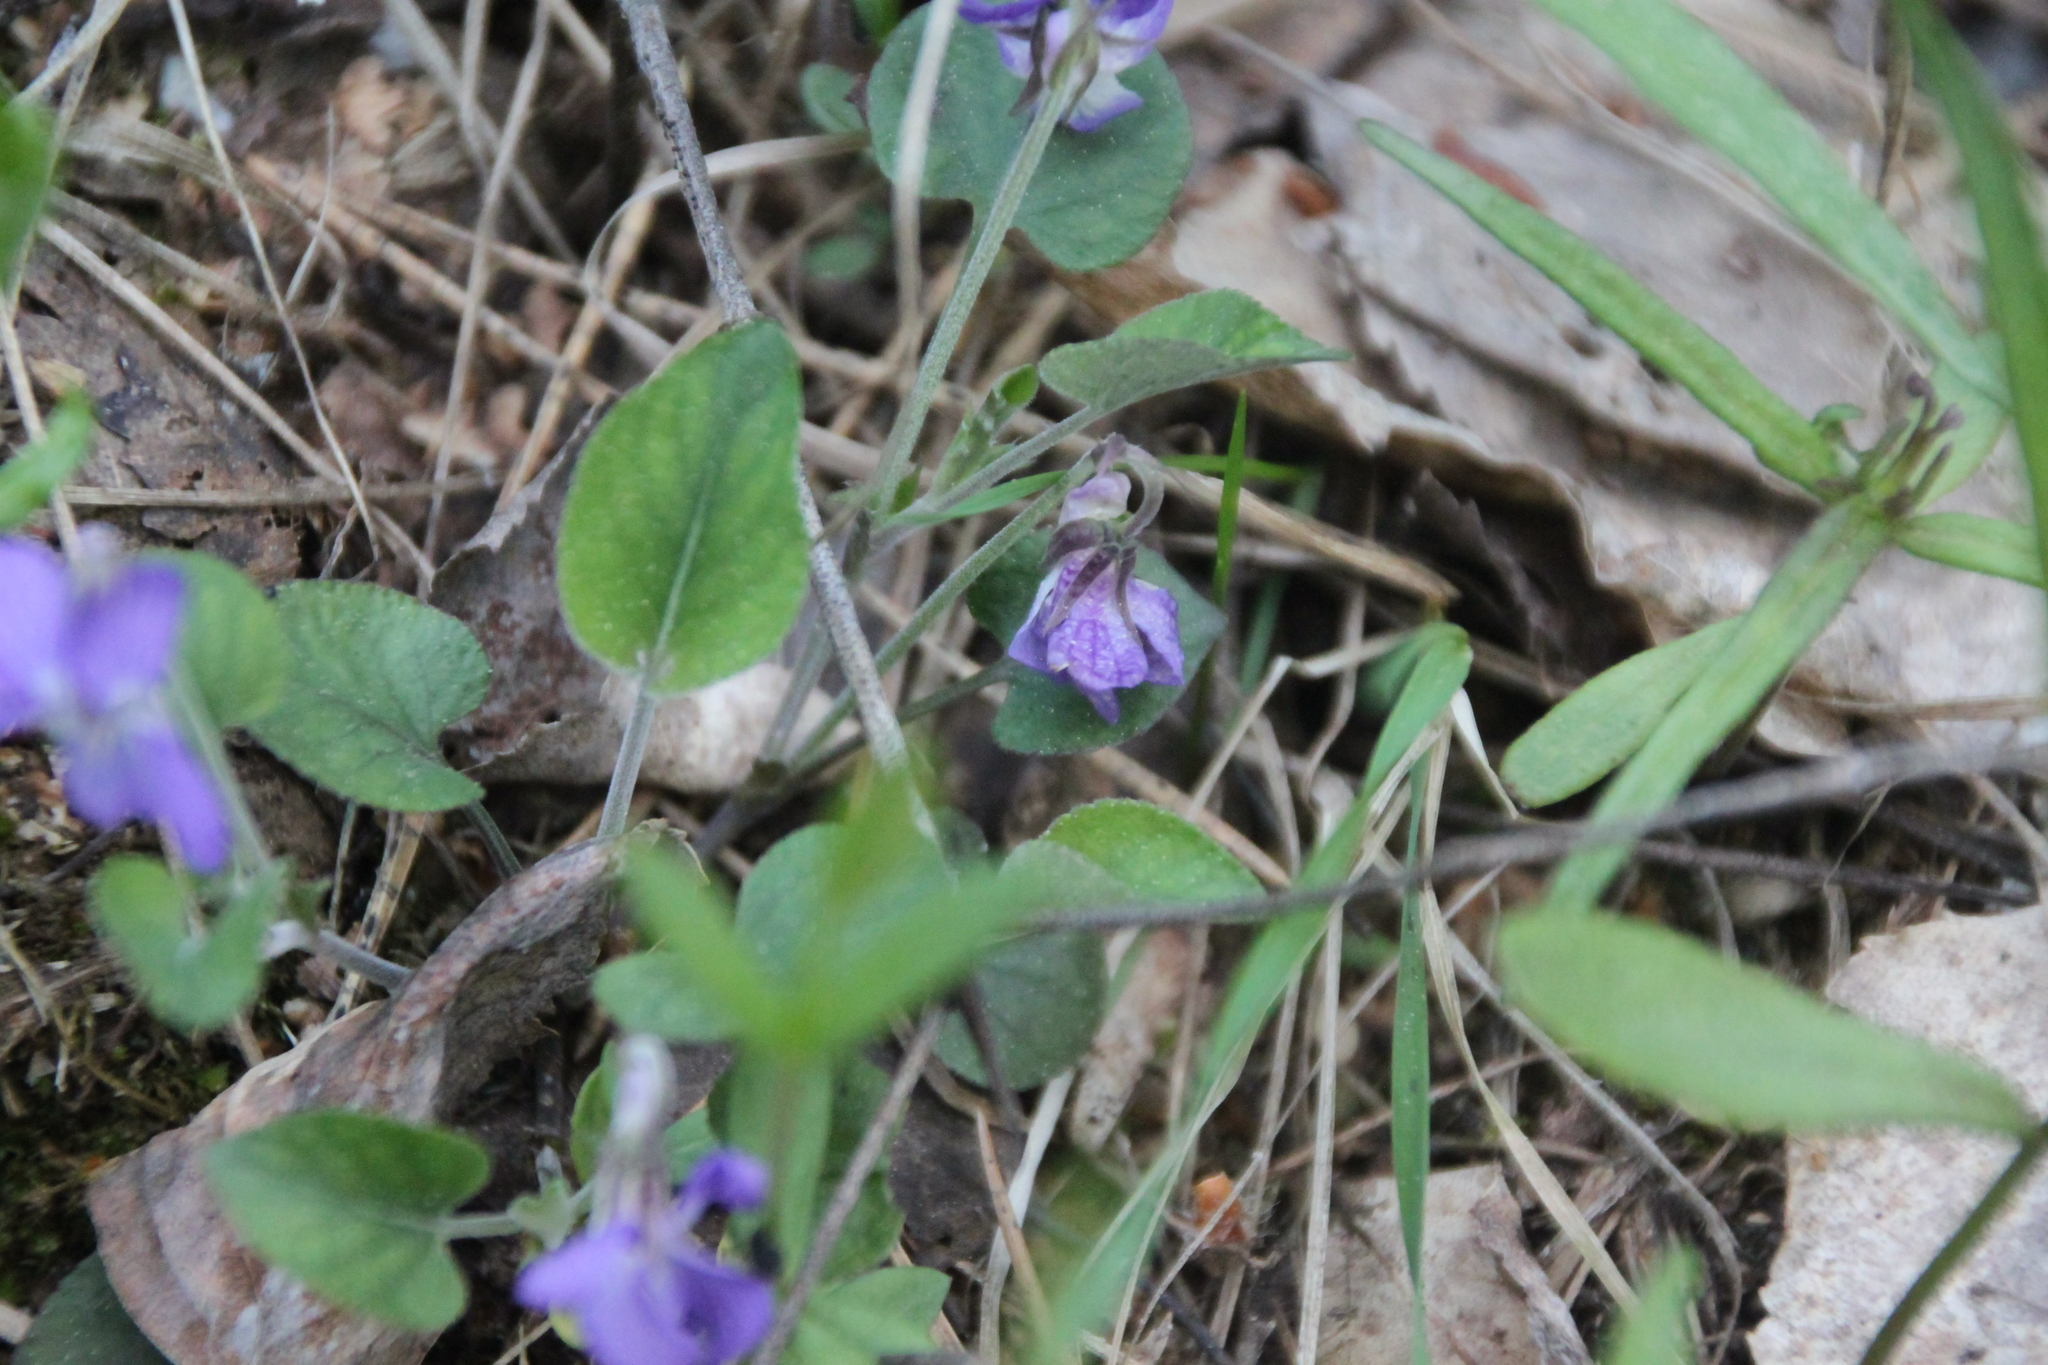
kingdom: Plantae
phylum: Tracheophyta
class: Magnoliopsida
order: Malpighiales
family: Violaceae
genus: Viola
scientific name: Viola rupestris
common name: Teesdale violet
